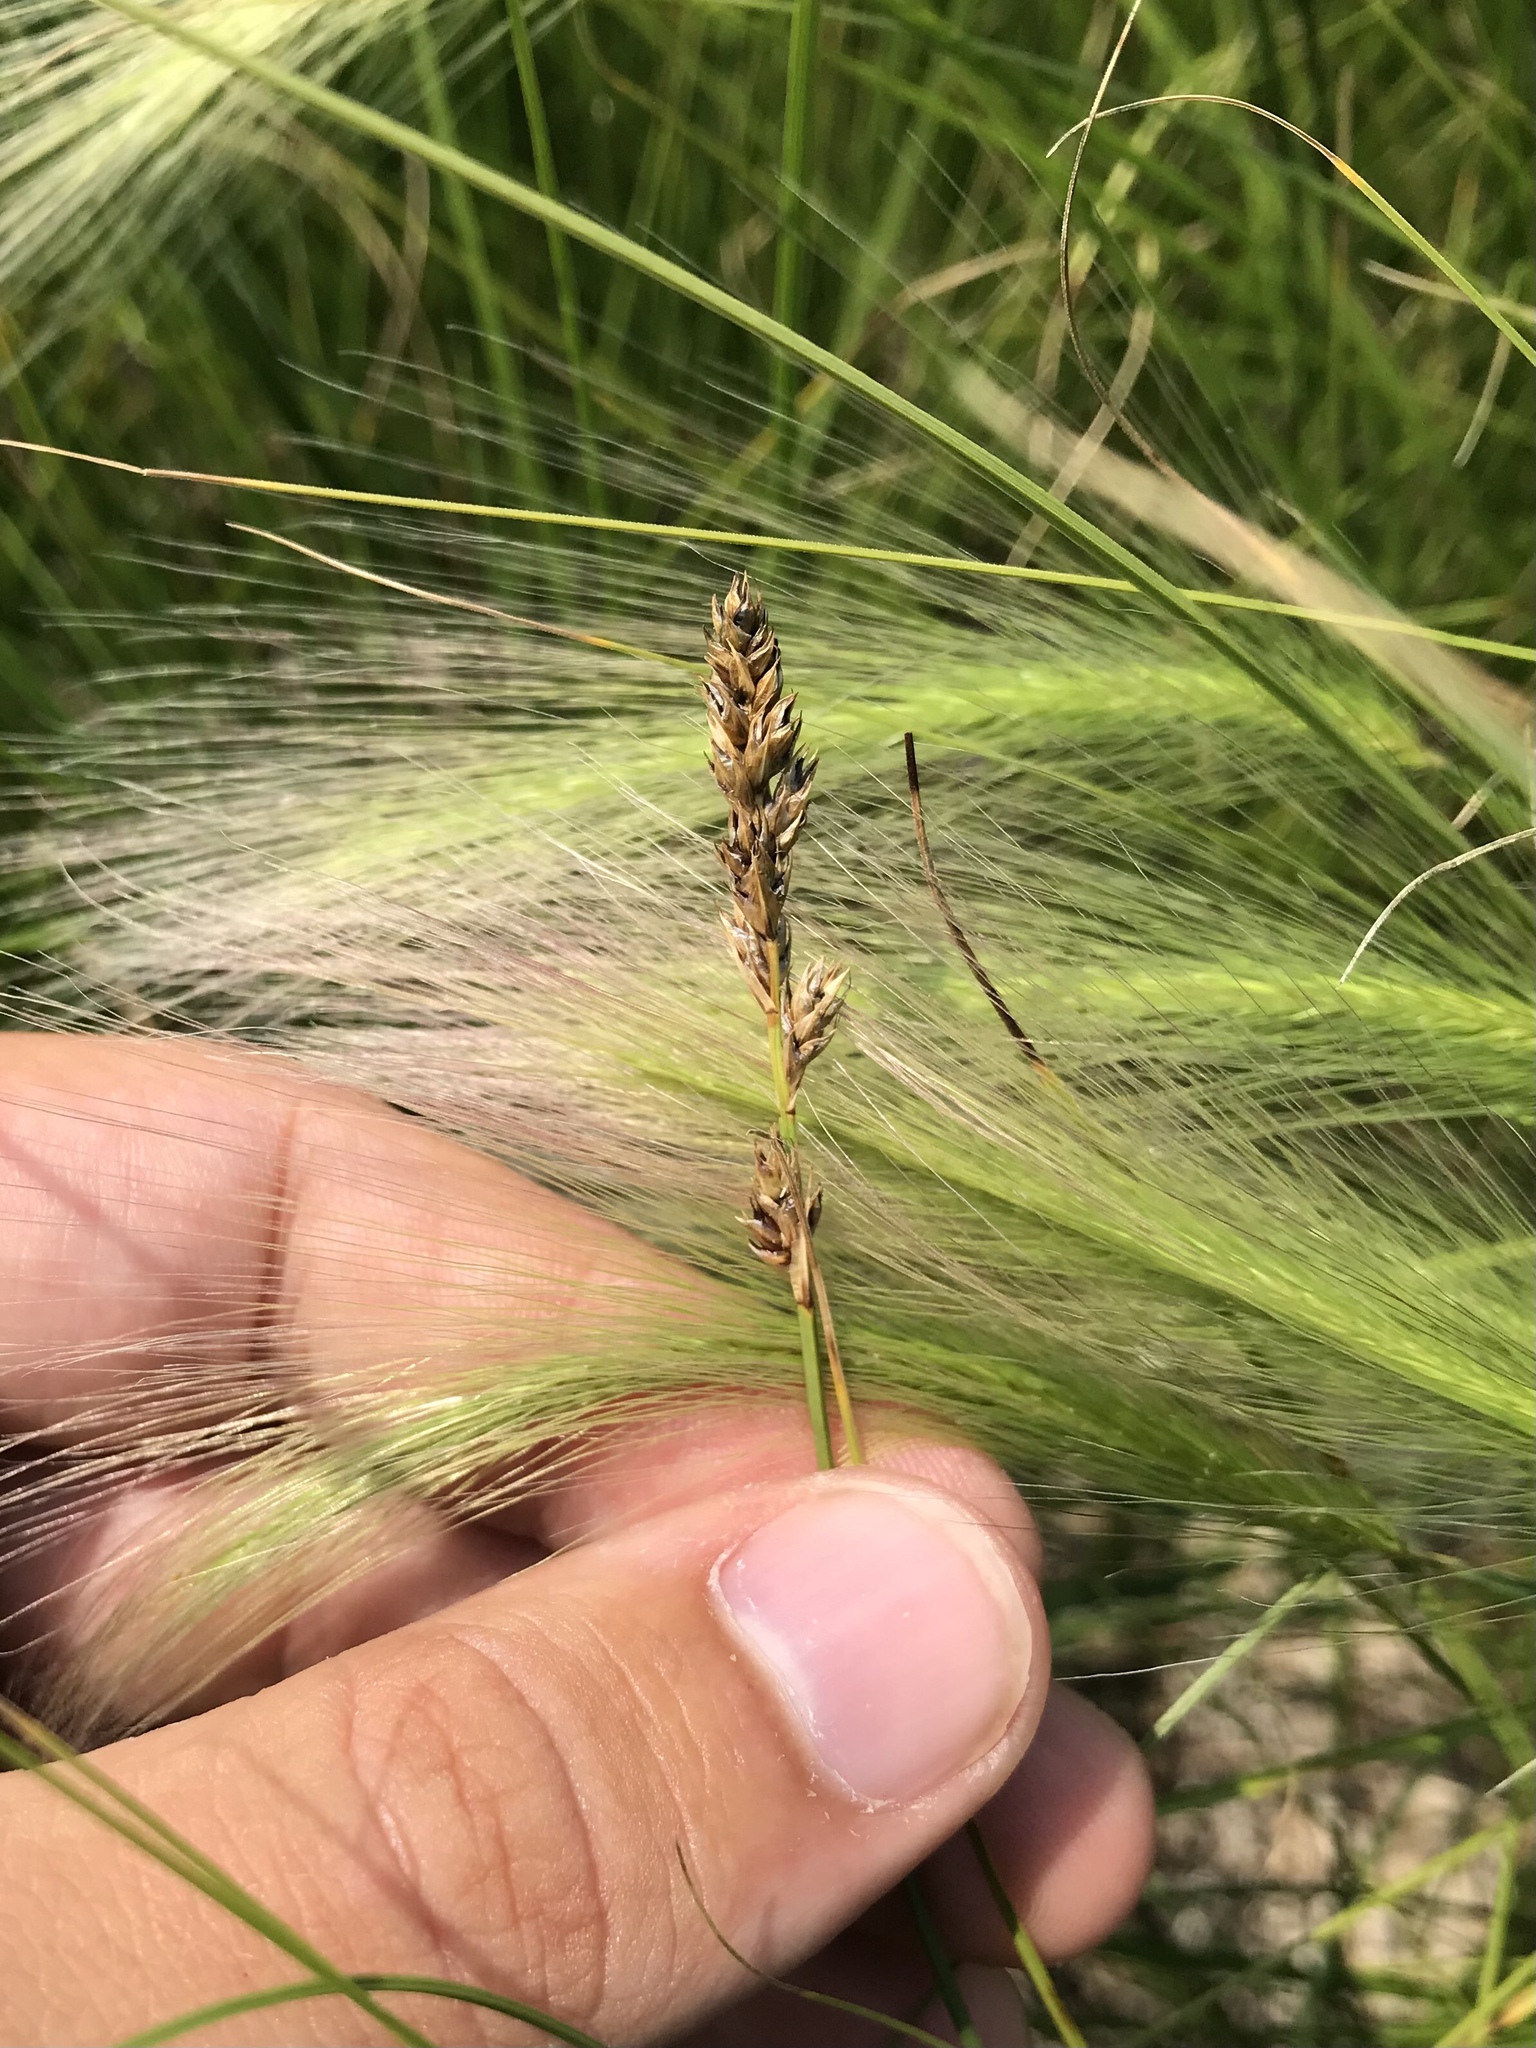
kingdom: Plantae
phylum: Tracheophyta
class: Liliopsida
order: Poales
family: Cyperaceae
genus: Carex
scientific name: Carex praegracilis
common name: Black creeper sedge
